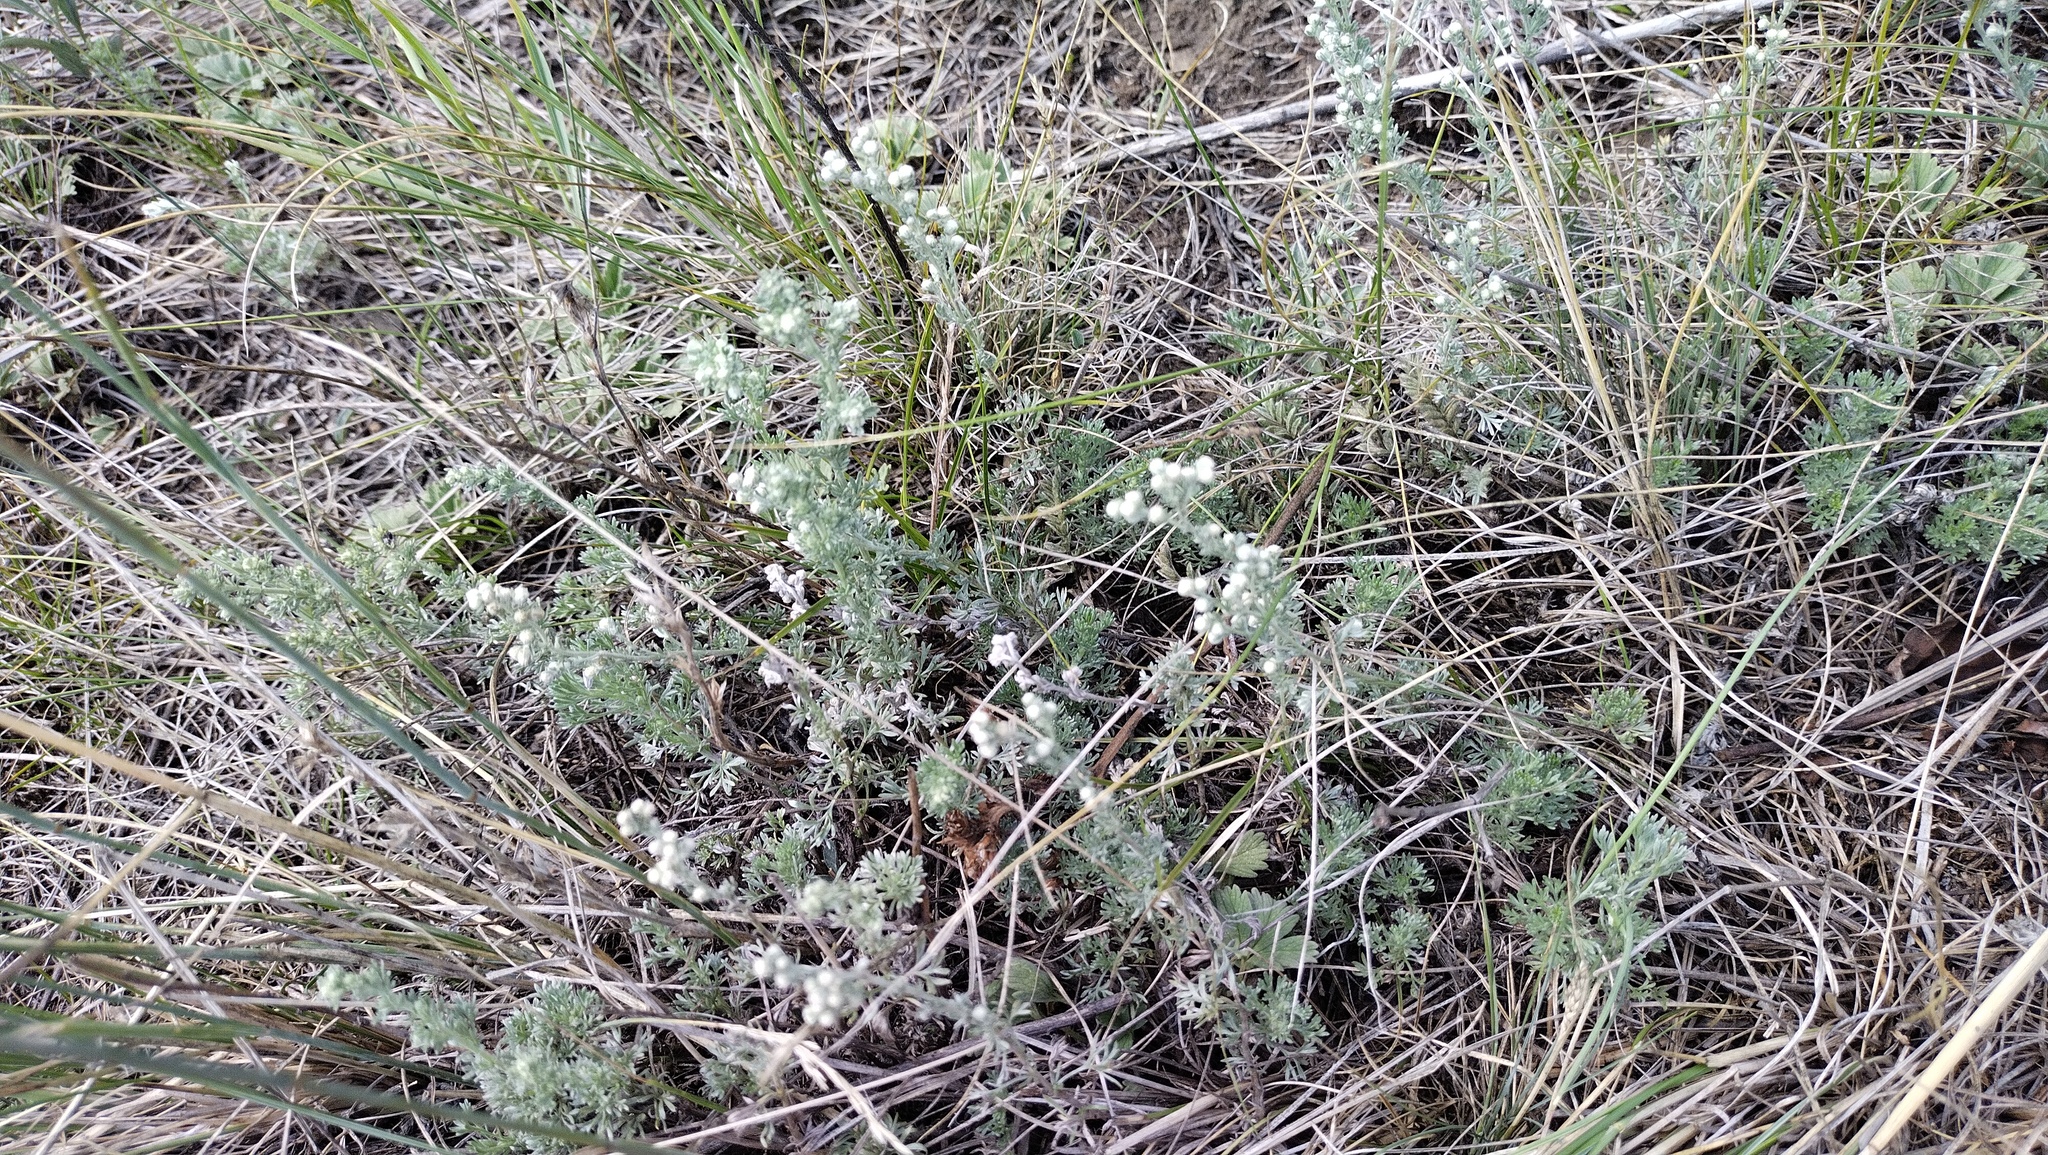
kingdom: Plantae
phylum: Tracheophyta
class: Magnoliopsida
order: Asterales
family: Asteraceae
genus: Artemisia
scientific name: Artemisia frigida
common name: Prairie sagewort
